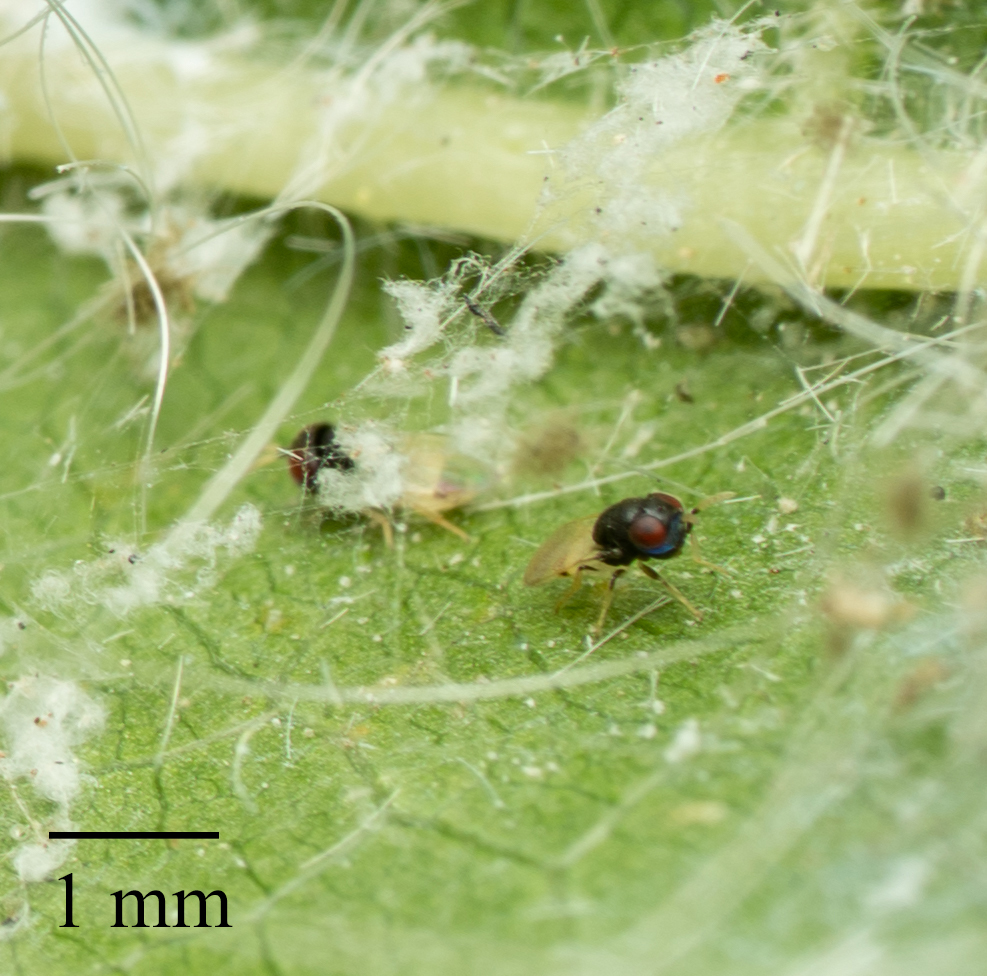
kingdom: Animalia
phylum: Arthropoda
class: Insecta
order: Hymenoptera
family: Pteromalidae
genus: Idioporus
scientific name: Idioporus affinis
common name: Pteromalid wasp
